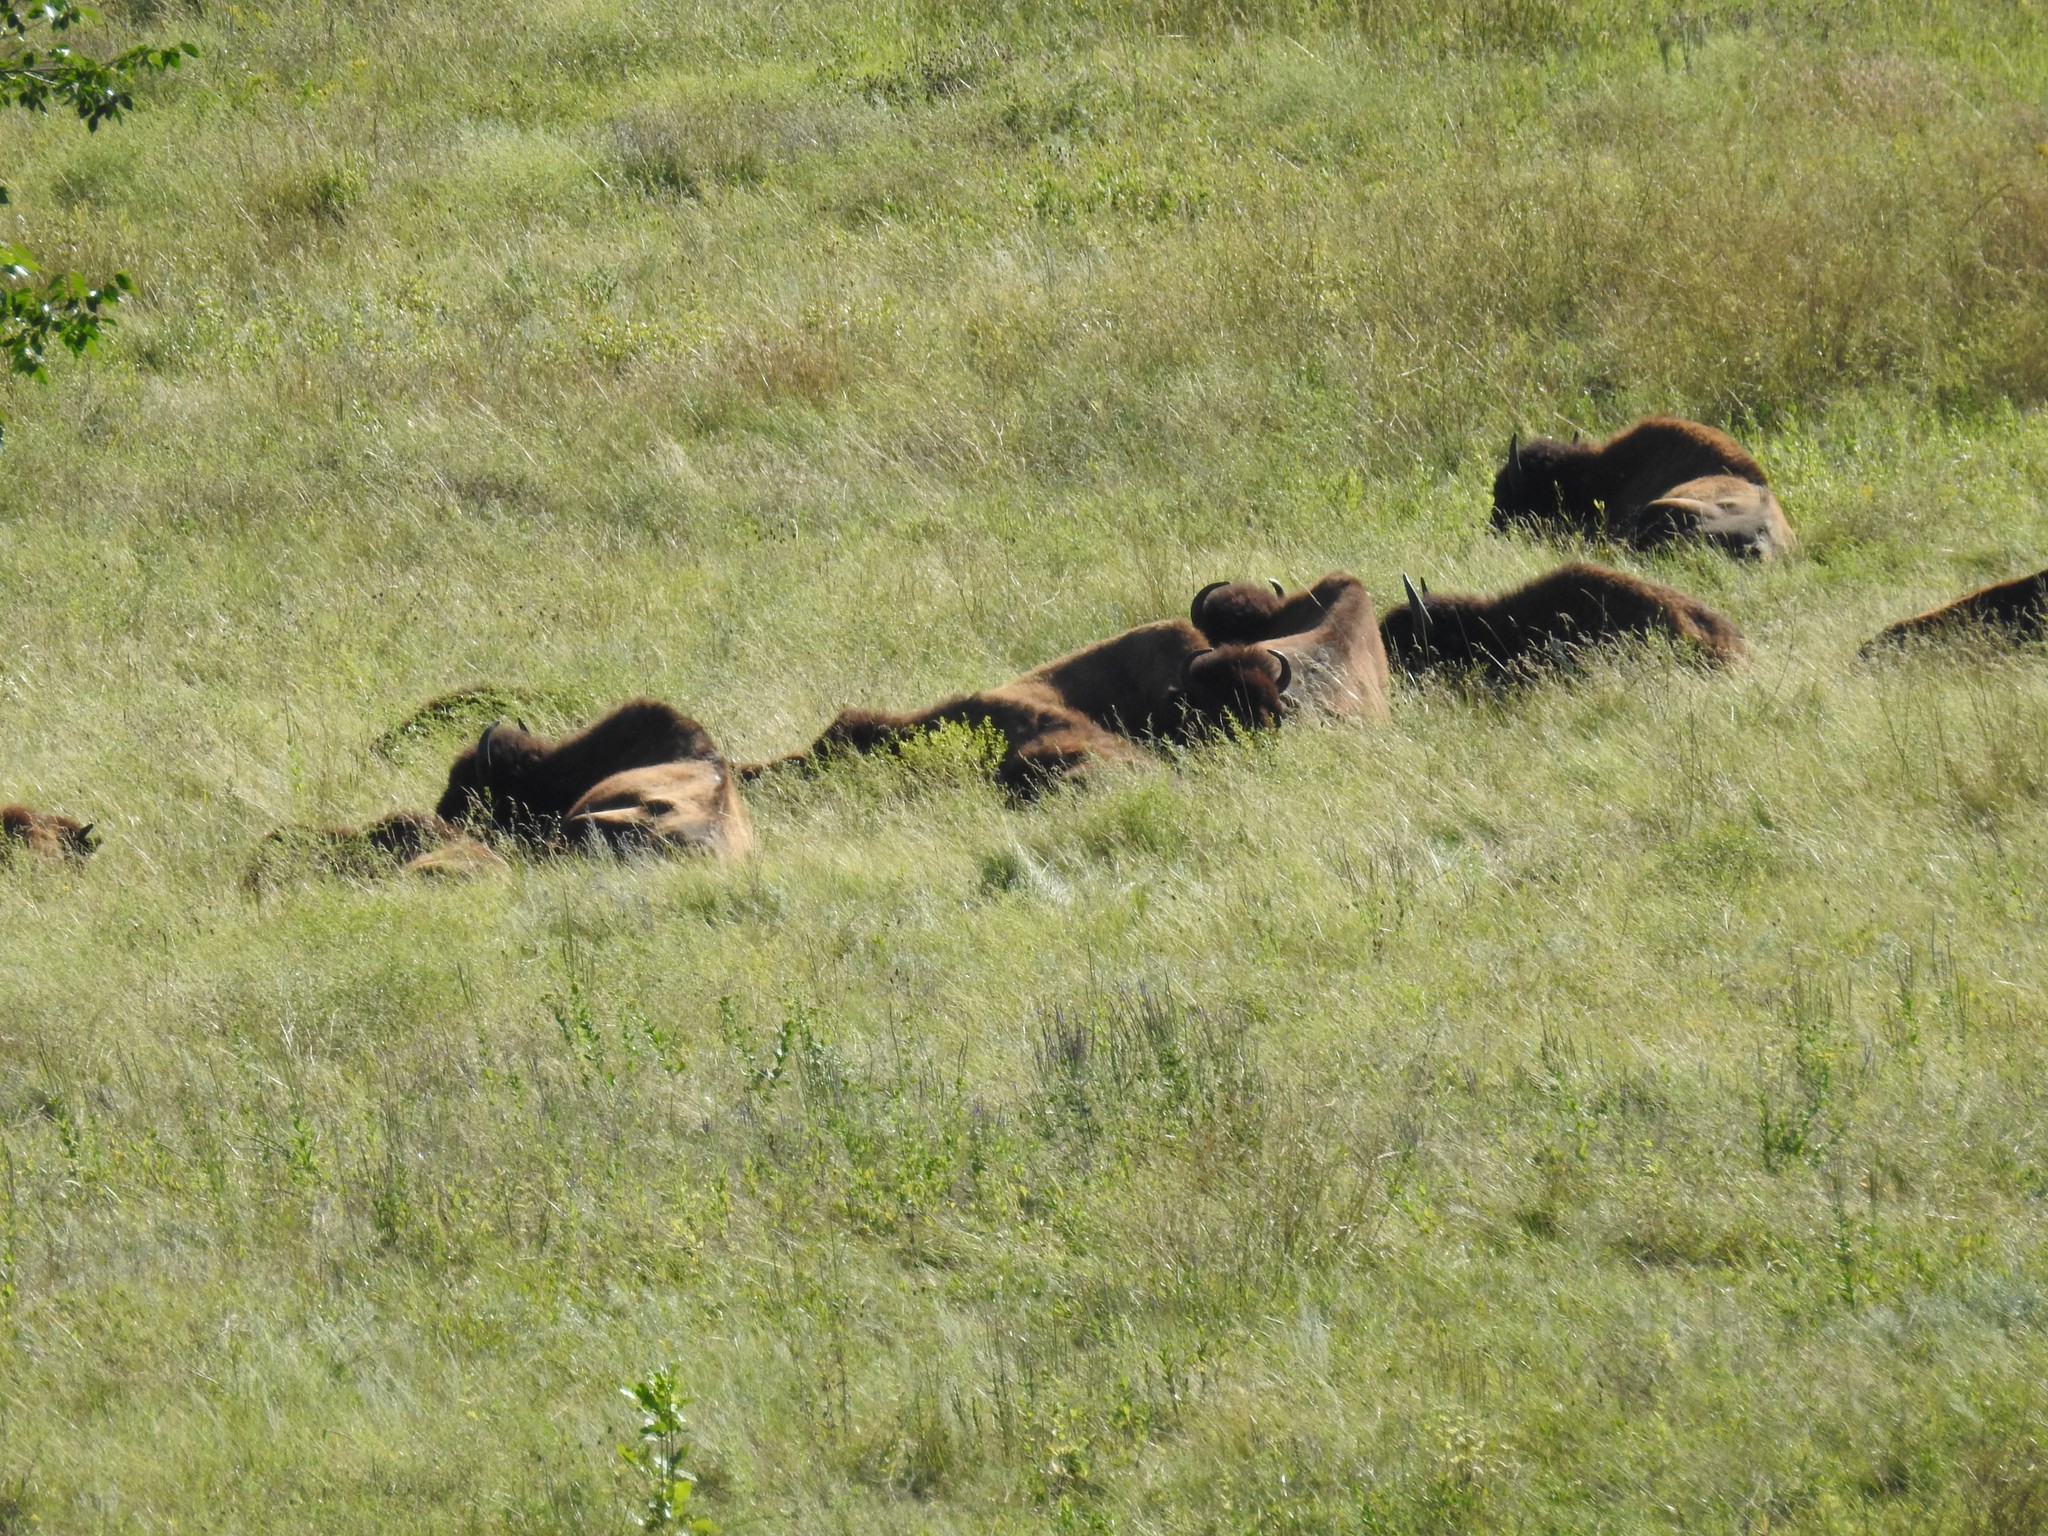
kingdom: Animalia
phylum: Chordata
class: Mammalia
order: Artiodactyla
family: Bovidae
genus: Bison
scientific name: Bison bison
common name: American bison
